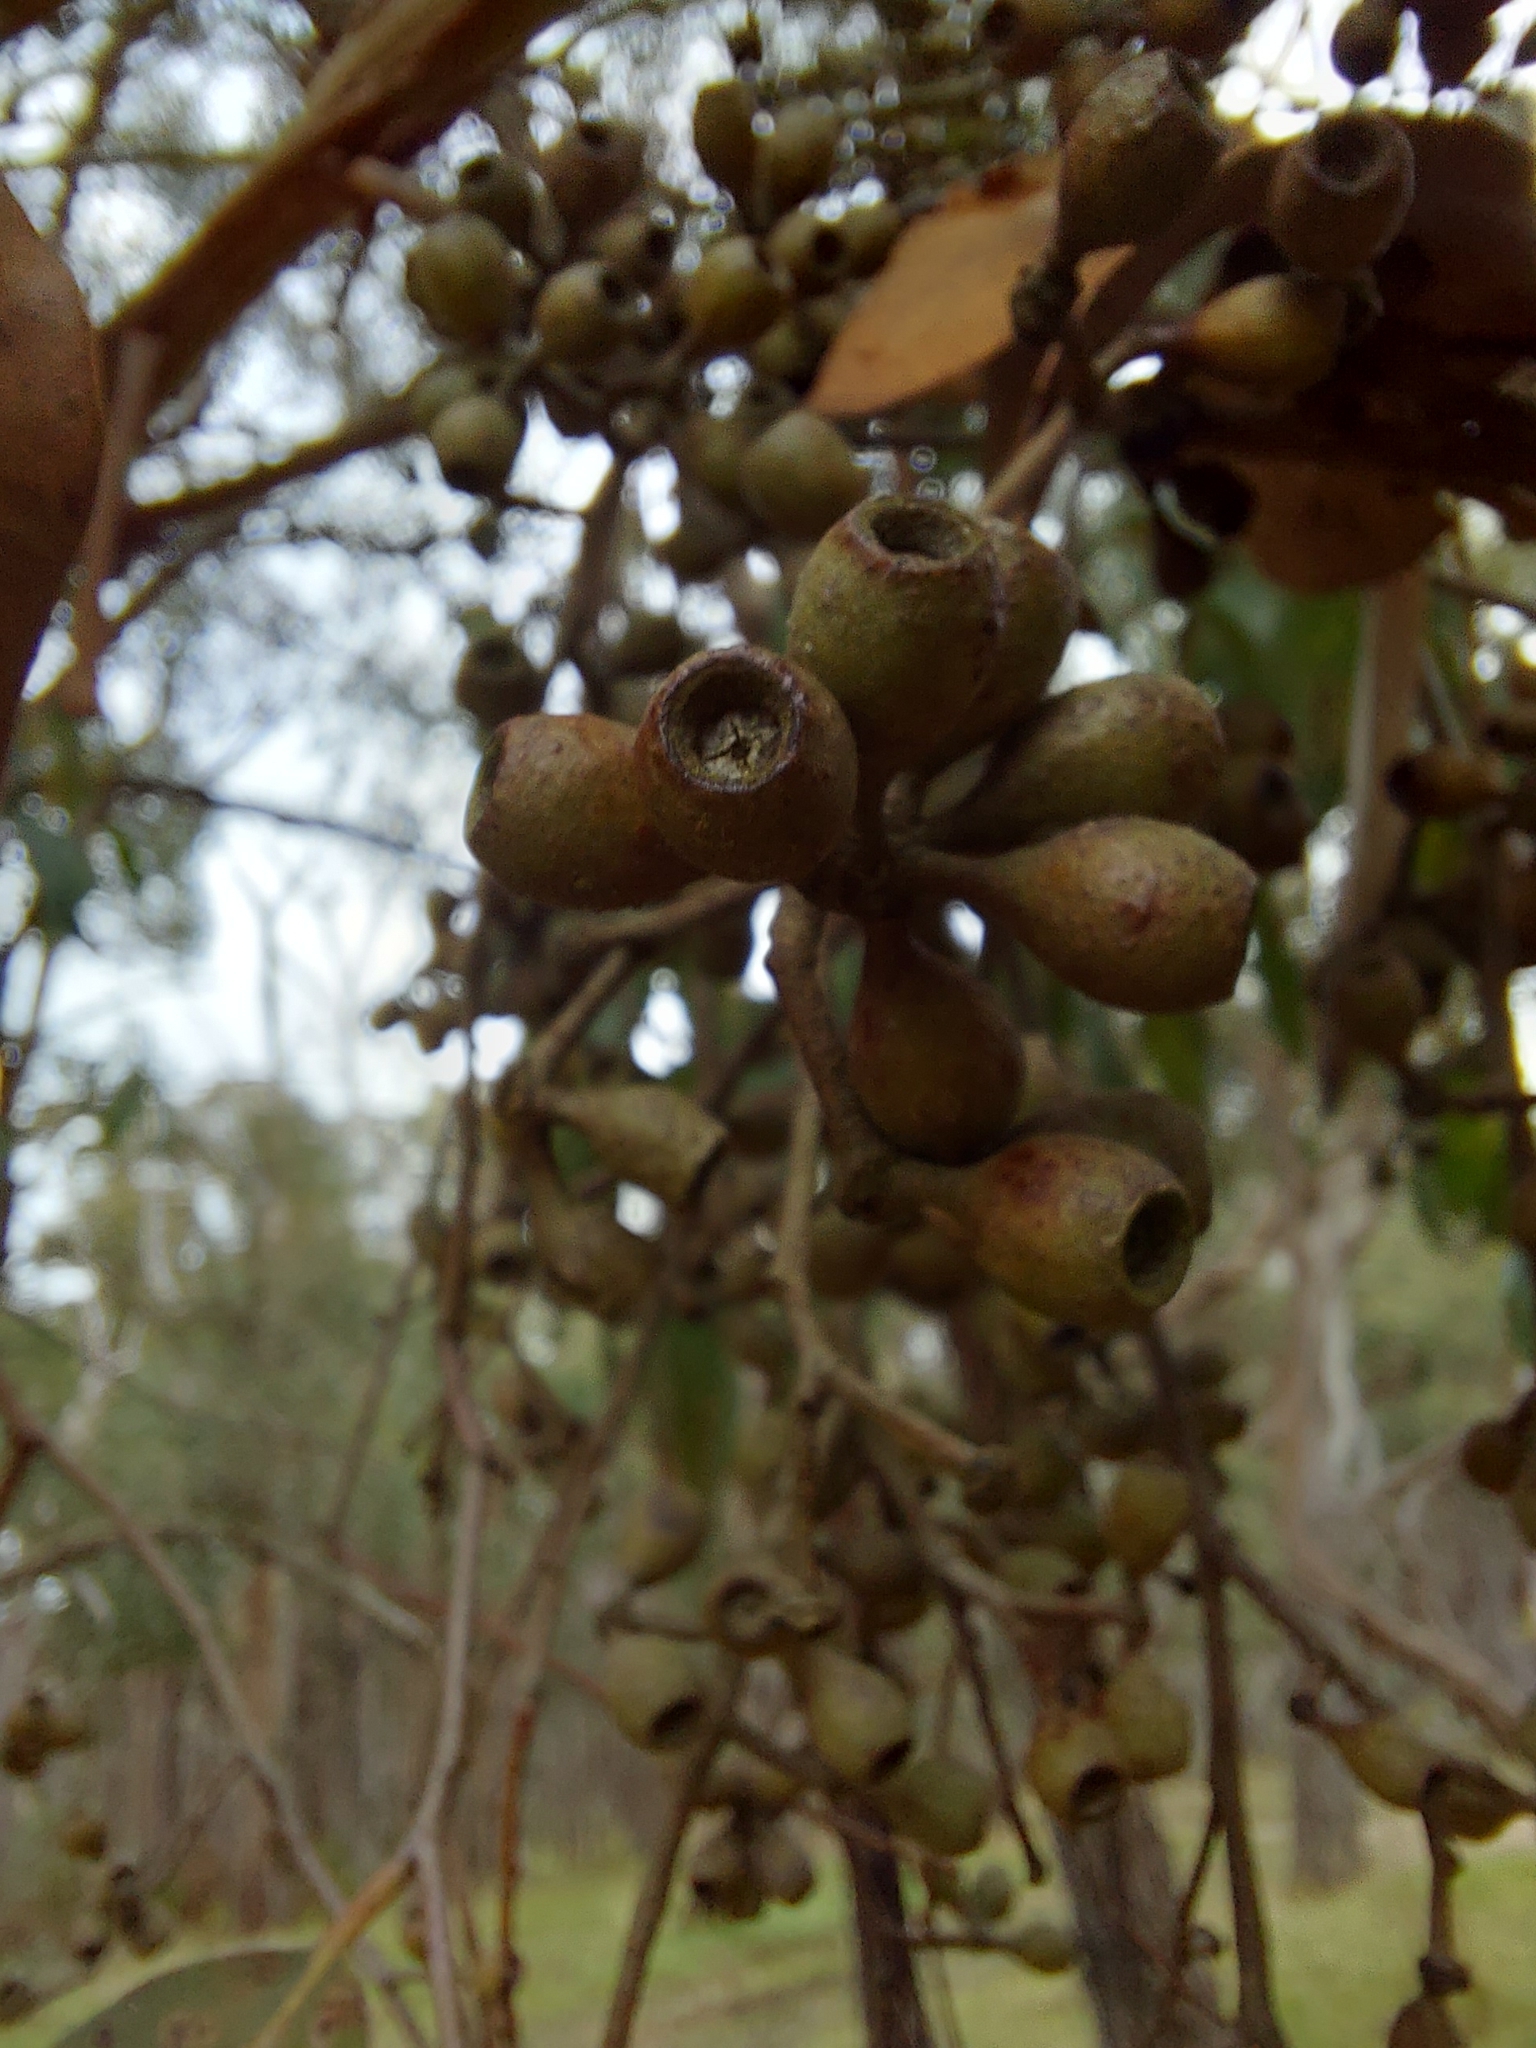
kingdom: Plantae
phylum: Tracheophyta
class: Magnoliopsida
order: Myrtales
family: Myrtaceae
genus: Eucalyptus
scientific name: Eucalyptus obliqua
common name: Messmate stringybark
